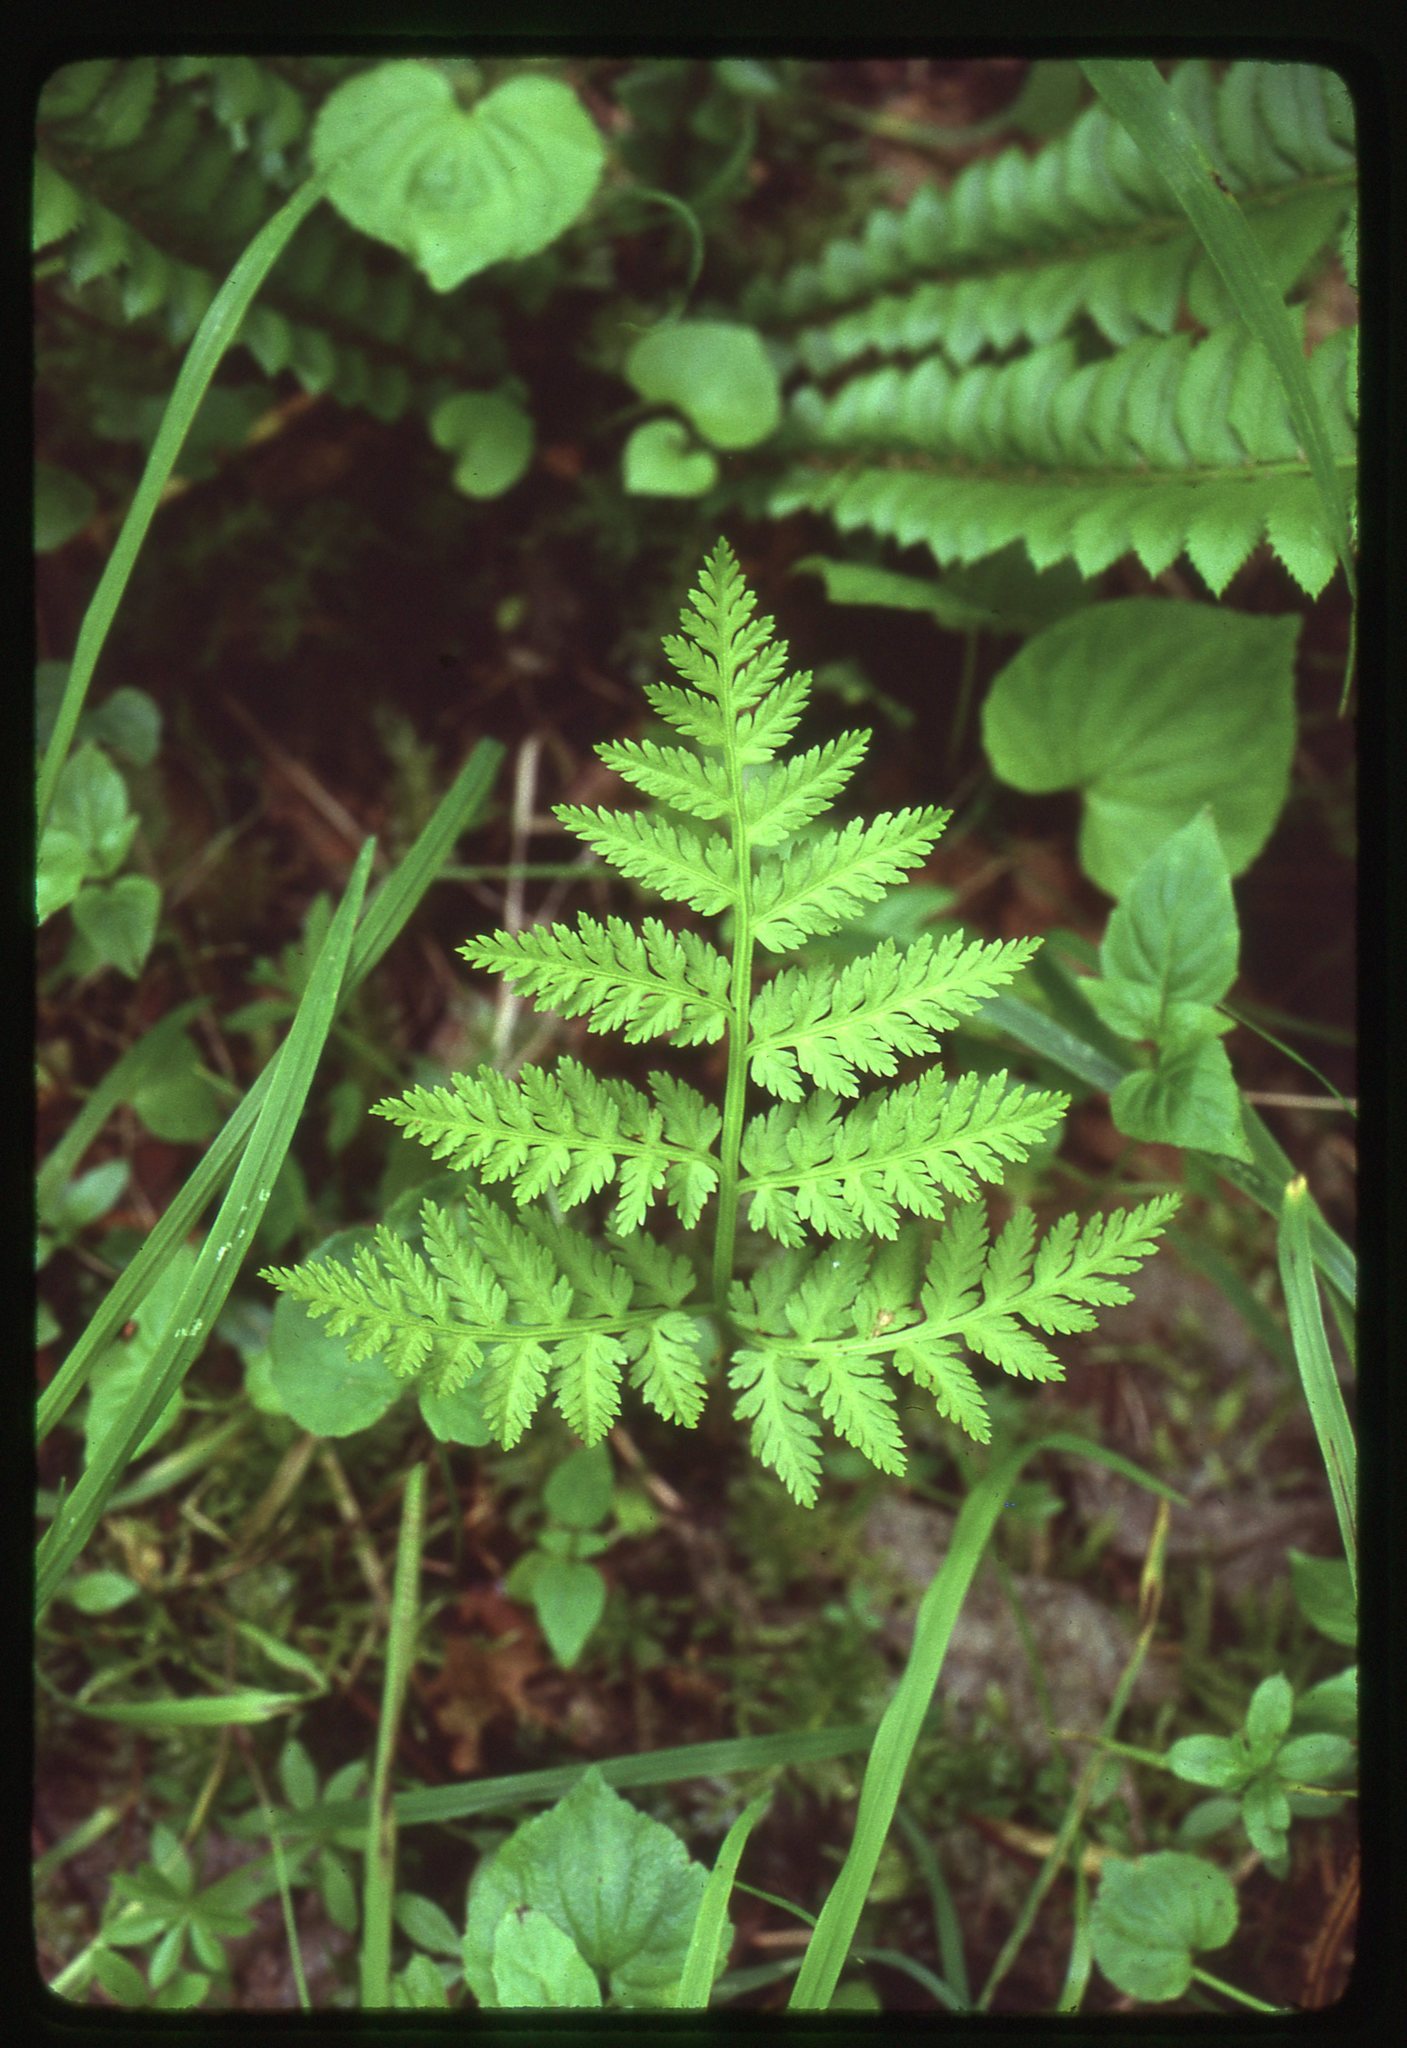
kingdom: Plantae
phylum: Tracheophyta
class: Polypodiopsida
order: Ophioglossales
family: Ophioglossaceae
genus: Botrypus
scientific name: Botrypus virginianus
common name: Common grapefern
